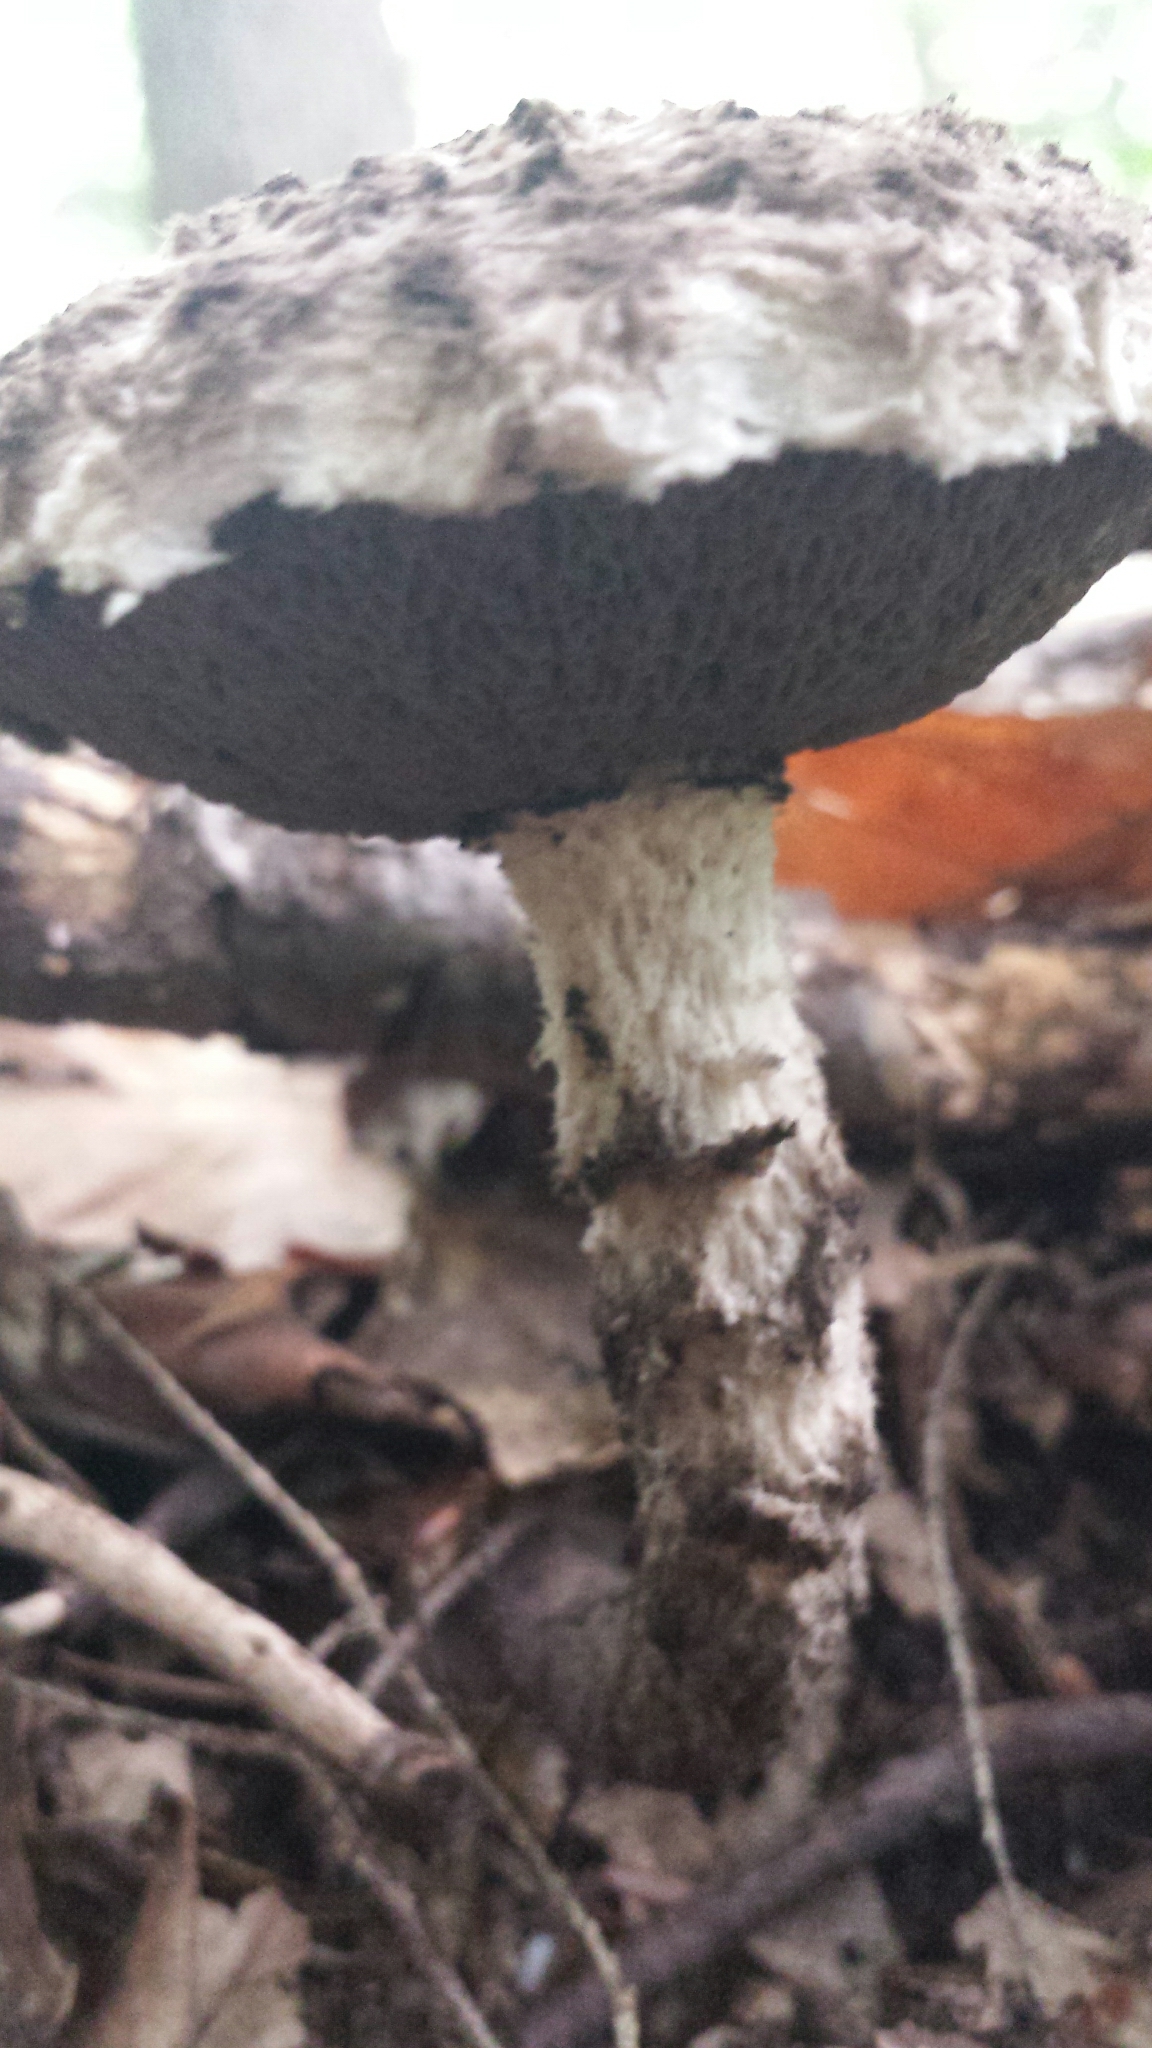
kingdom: Fungi
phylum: Basidiomycota
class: Agaricomycetes
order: Boletales
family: Boletaceae
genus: Strobilomyces
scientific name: Strobilomyces strobilaceus
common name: Old man of the woods
